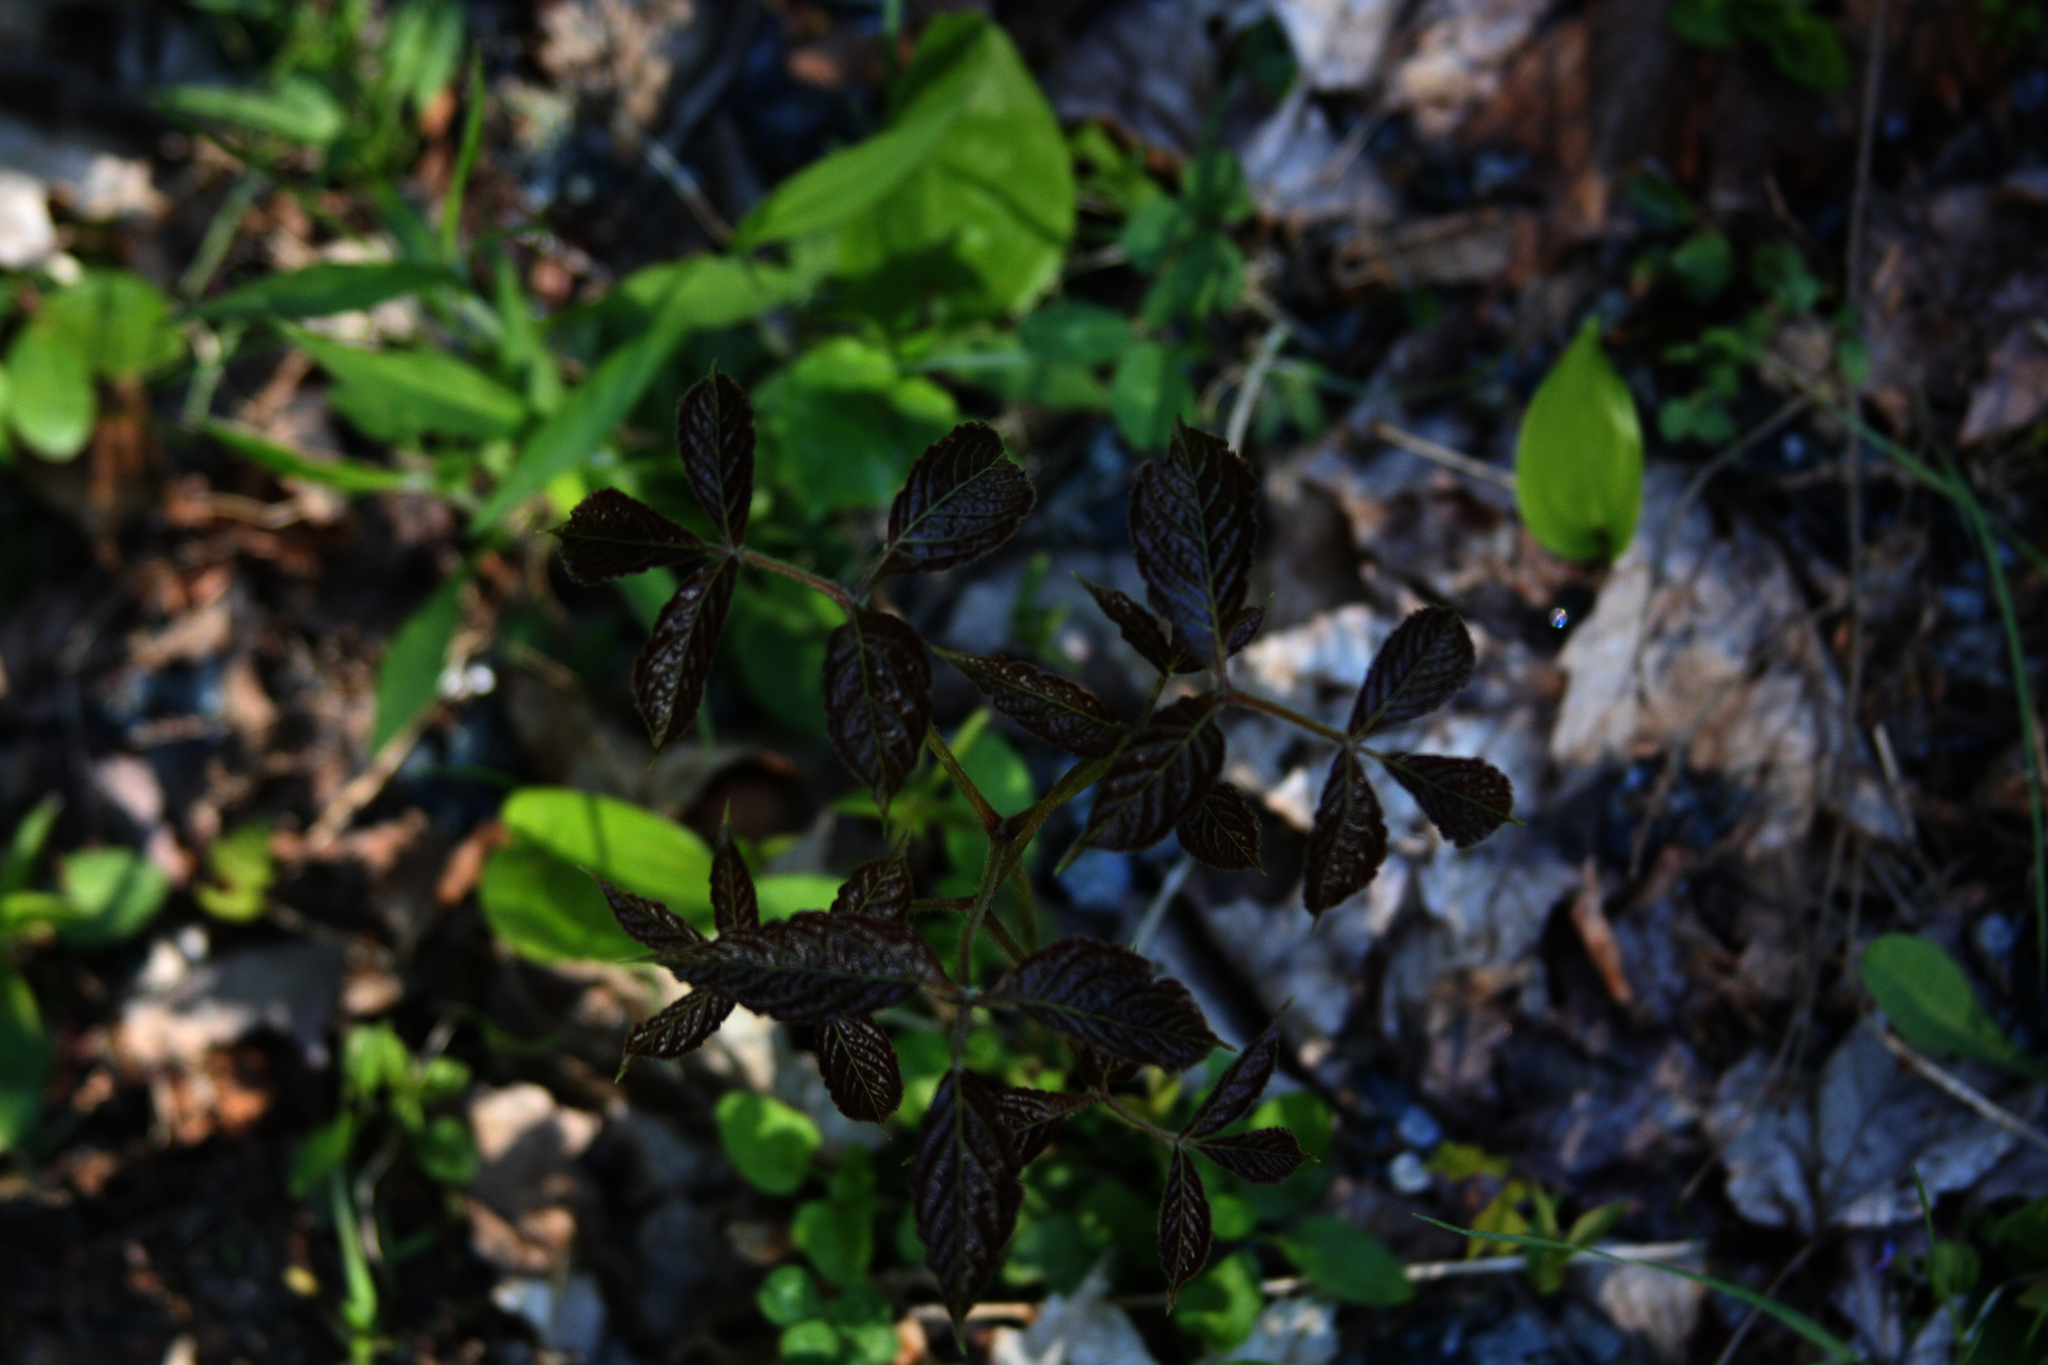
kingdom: Plantae
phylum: Tracheophyta
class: Magnoliopsida
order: Apiales
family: Araliaceae
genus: Aralia
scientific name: Aralia nudicaulis
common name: Wild sarsaparilla
